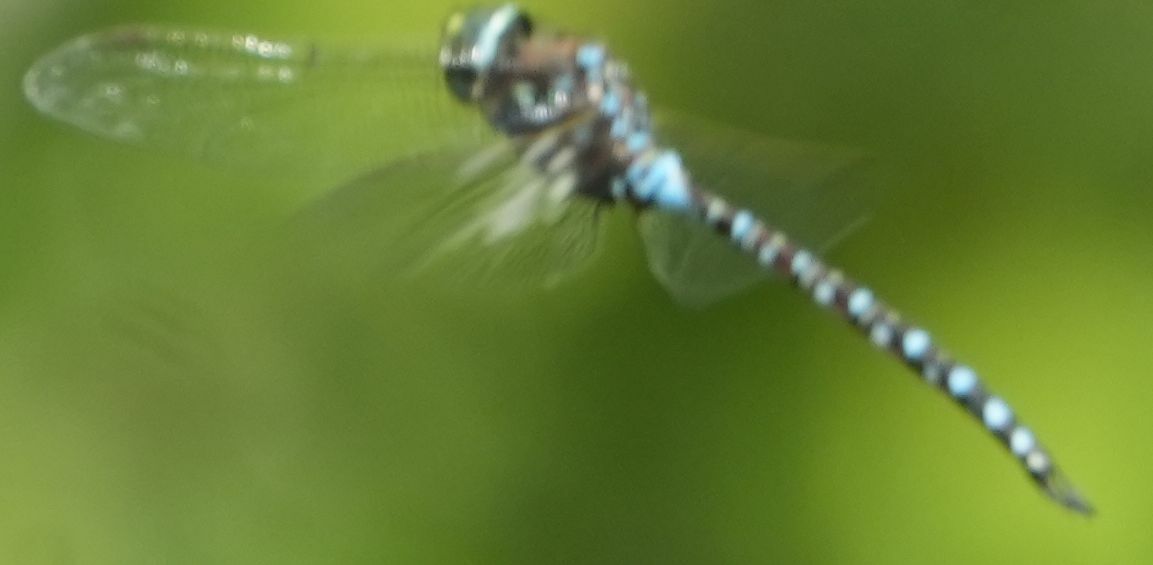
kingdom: Animalia
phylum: Arthropoda
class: Insecta
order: Odonata
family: Aeshnidae
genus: Aeshna
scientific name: Aeshna interrupta
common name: Variable darner
